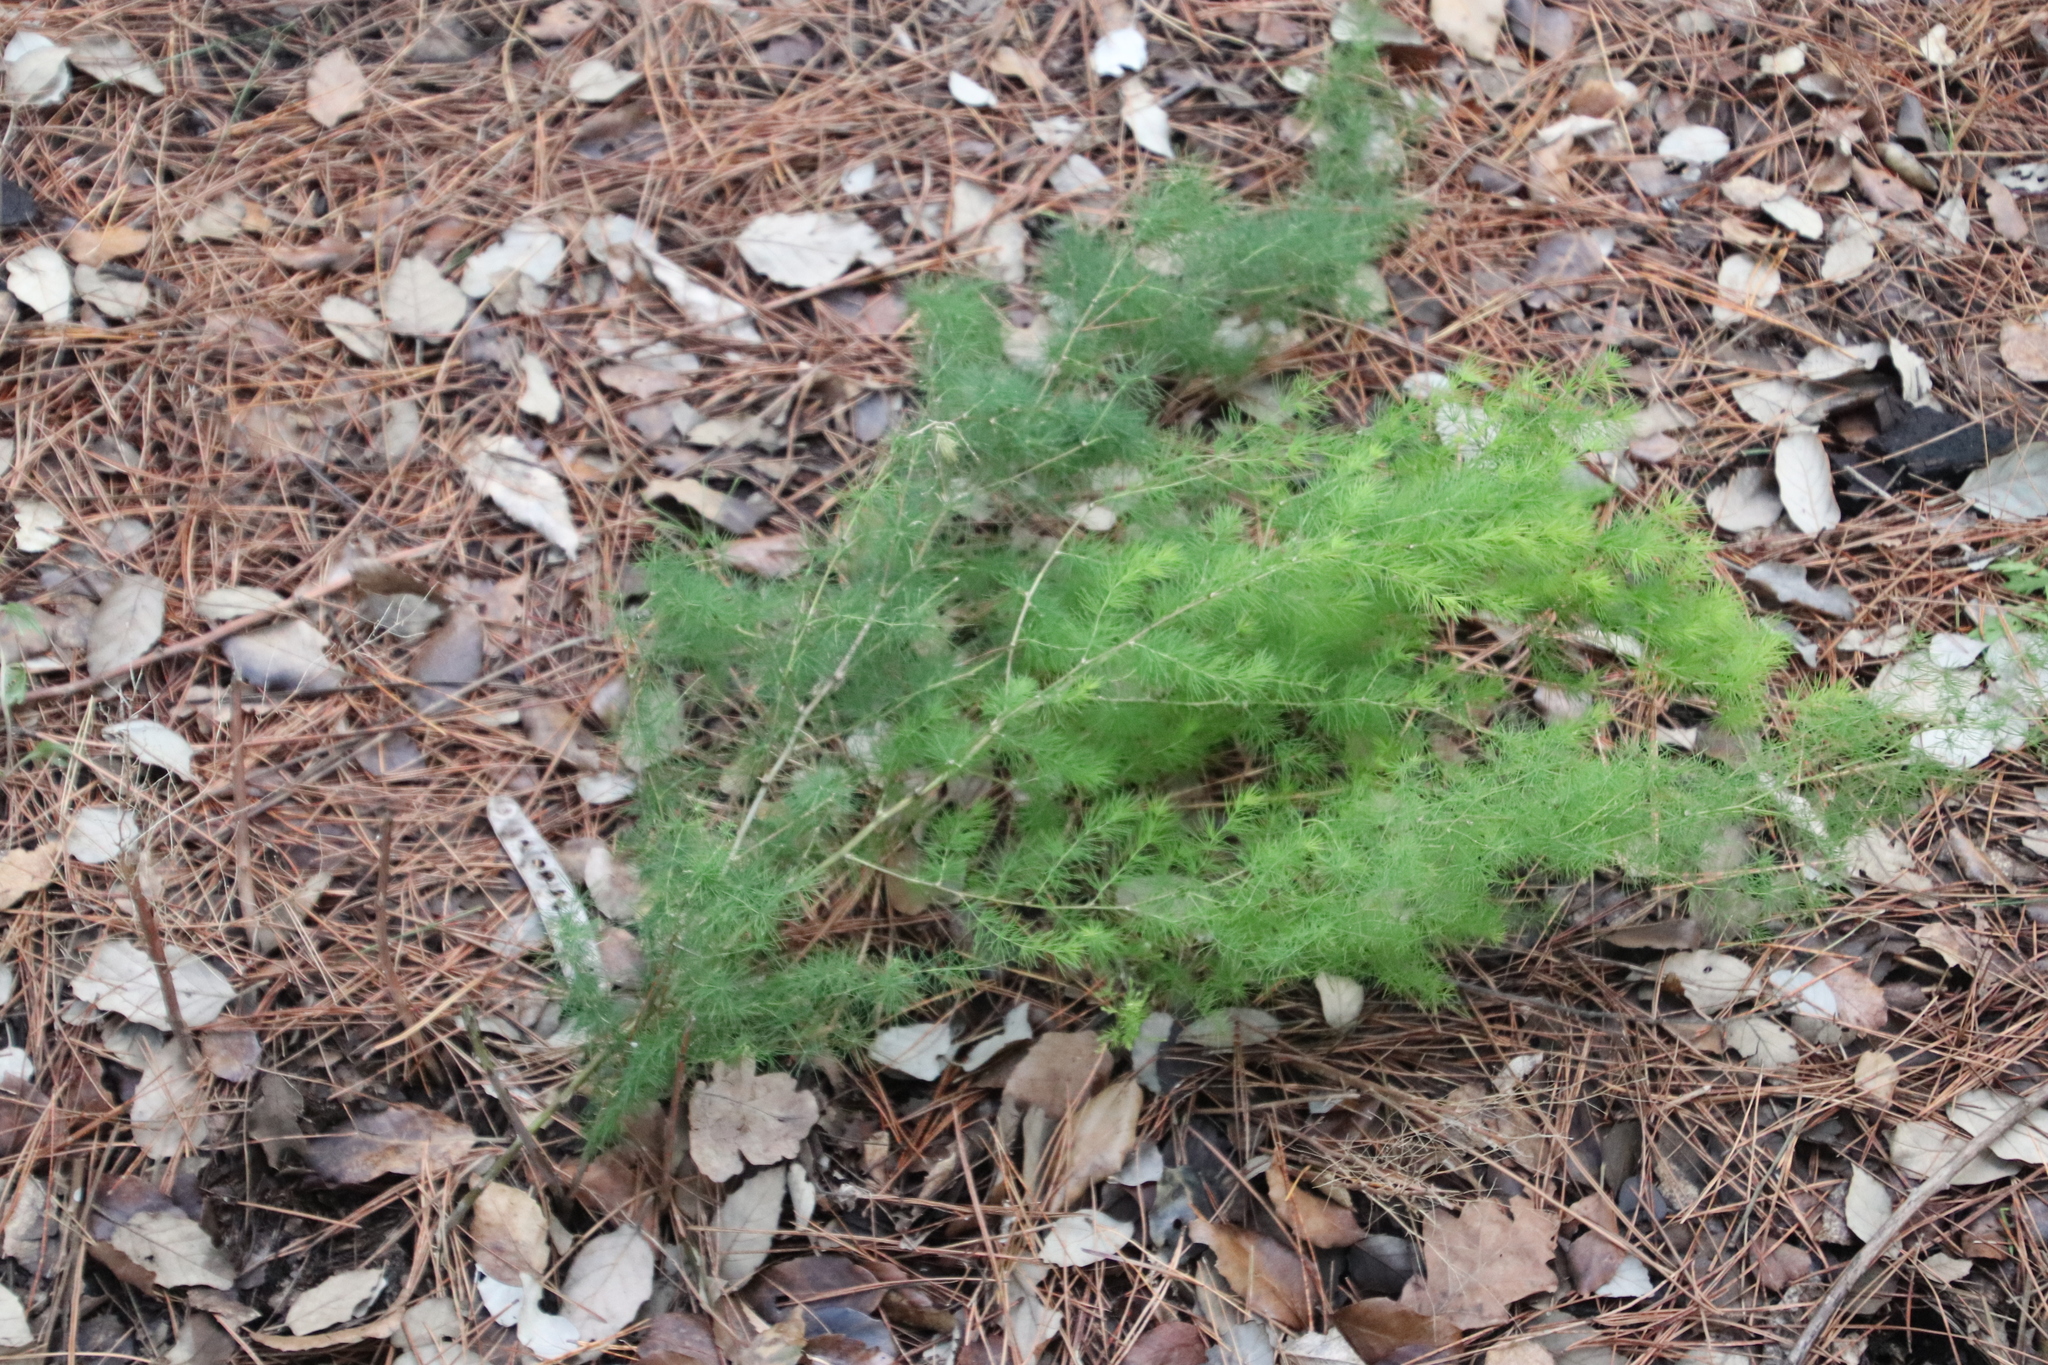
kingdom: Plantae
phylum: Tracheophyta
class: Liliopsida
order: Asparagales
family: Asparagaceae
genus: Asparagus
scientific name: Asparagus rubicundus
